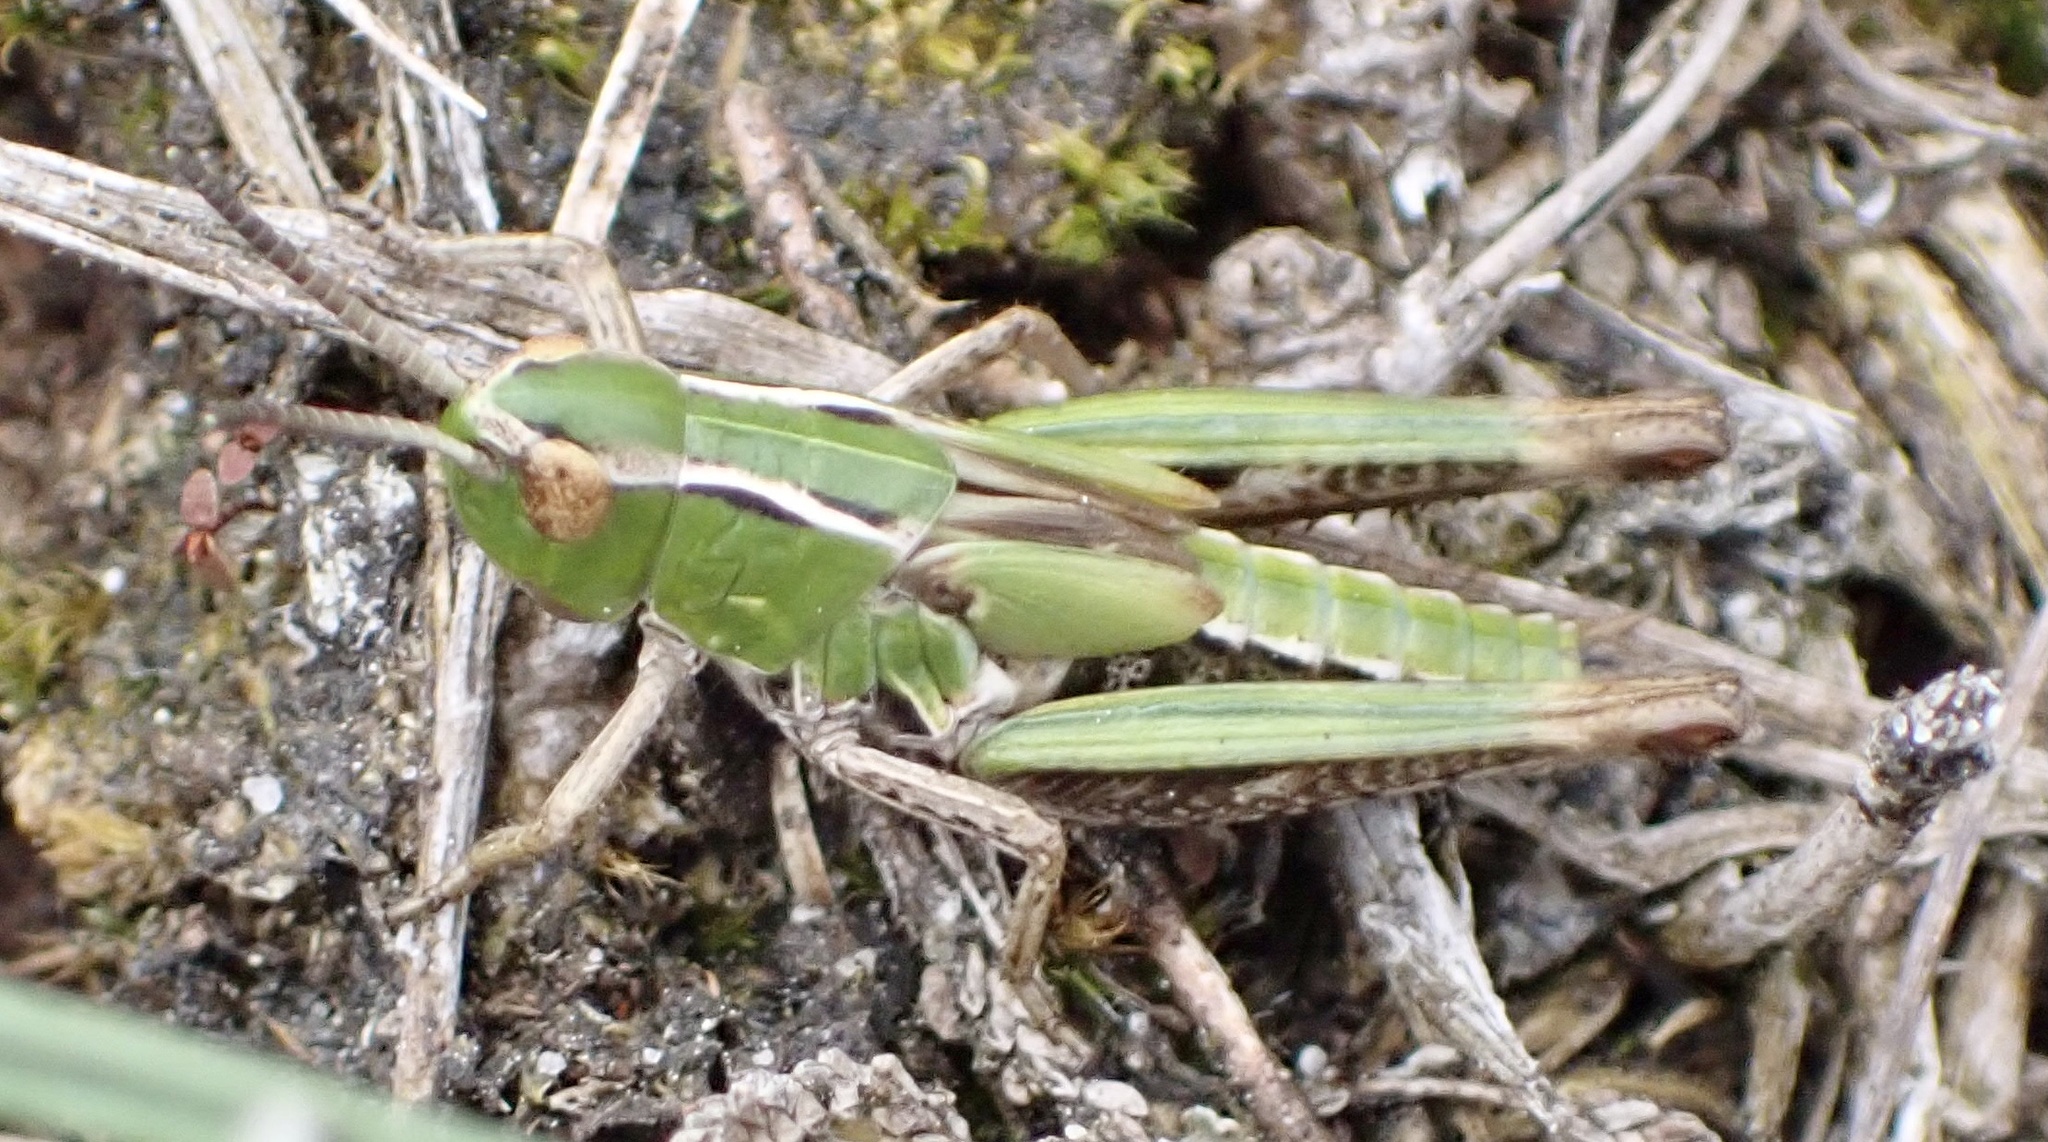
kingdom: Animalia
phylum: Arthropoda
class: Insecta
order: Orthoptera
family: Acrididae
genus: Stenobothrus
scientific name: Stenobothrus lineatus
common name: Stripe-winged grasshopper
